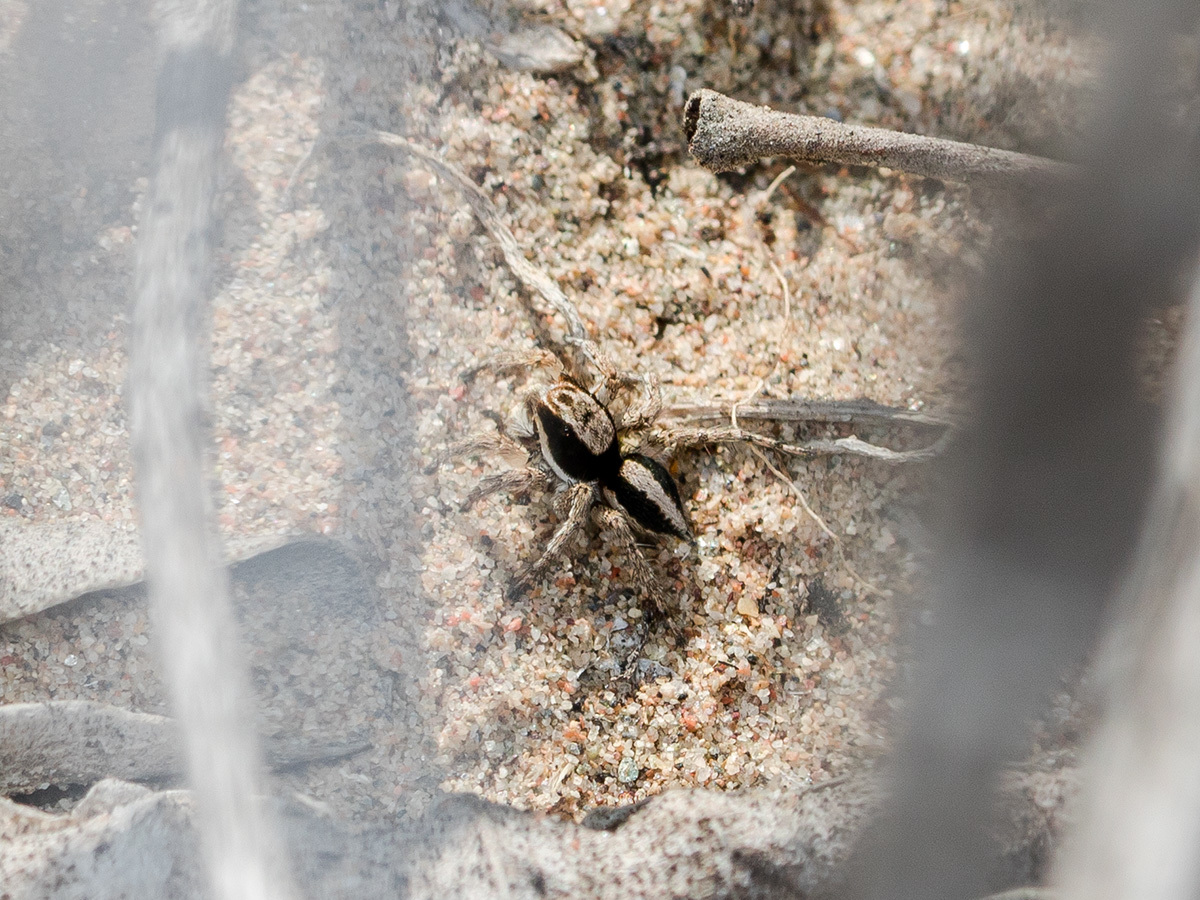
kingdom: Animalia
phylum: Arthropoda
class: Arachnida
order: Araneae
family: Salticidae
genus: Aelurillus
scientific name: Aelurillus nenilini
